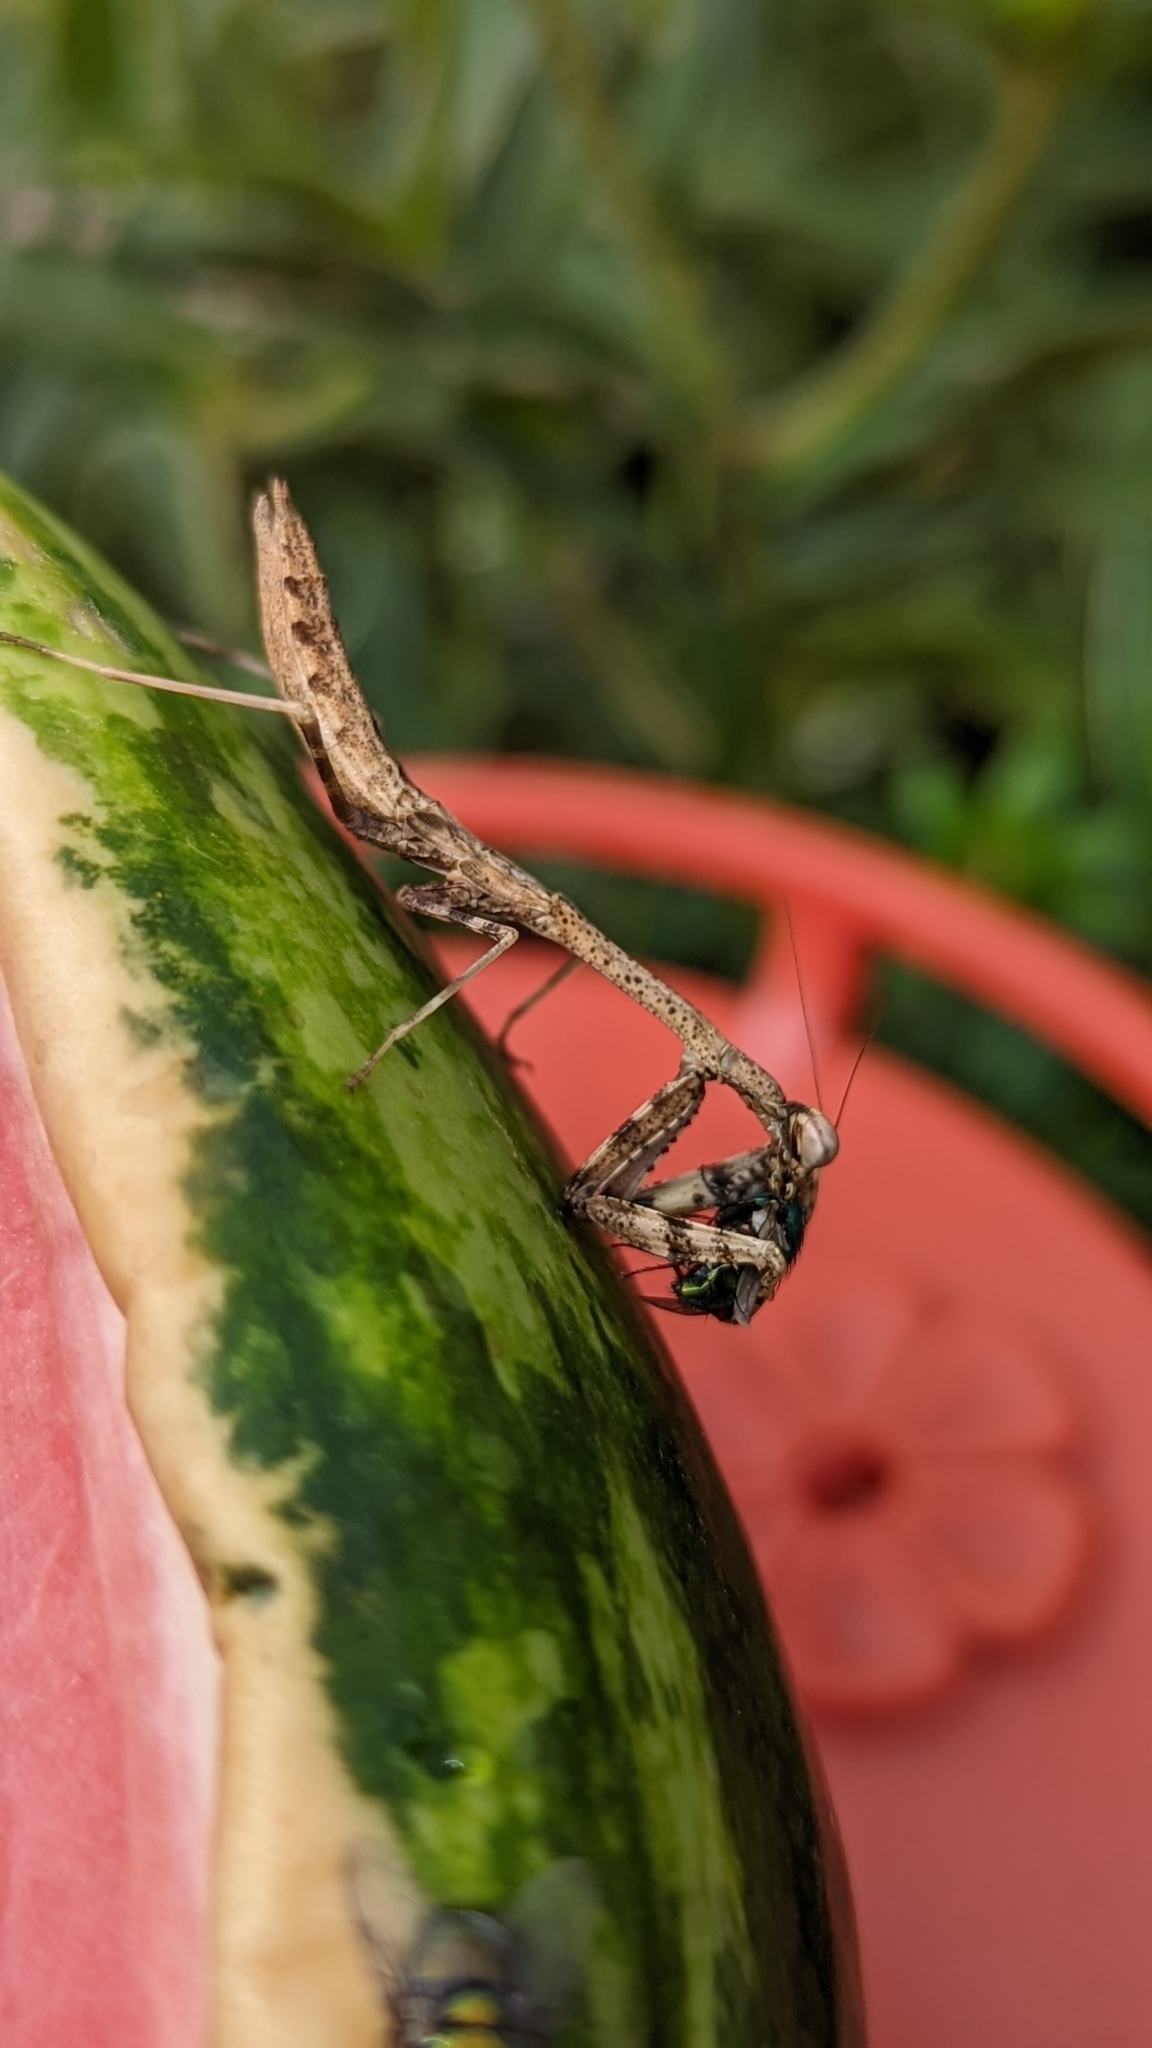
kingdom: Animalia
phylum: Arthropoda
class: Insecta
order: Mantodea
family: Mantidae
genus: Stagmomantis
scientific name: Stagmomantis carolina
